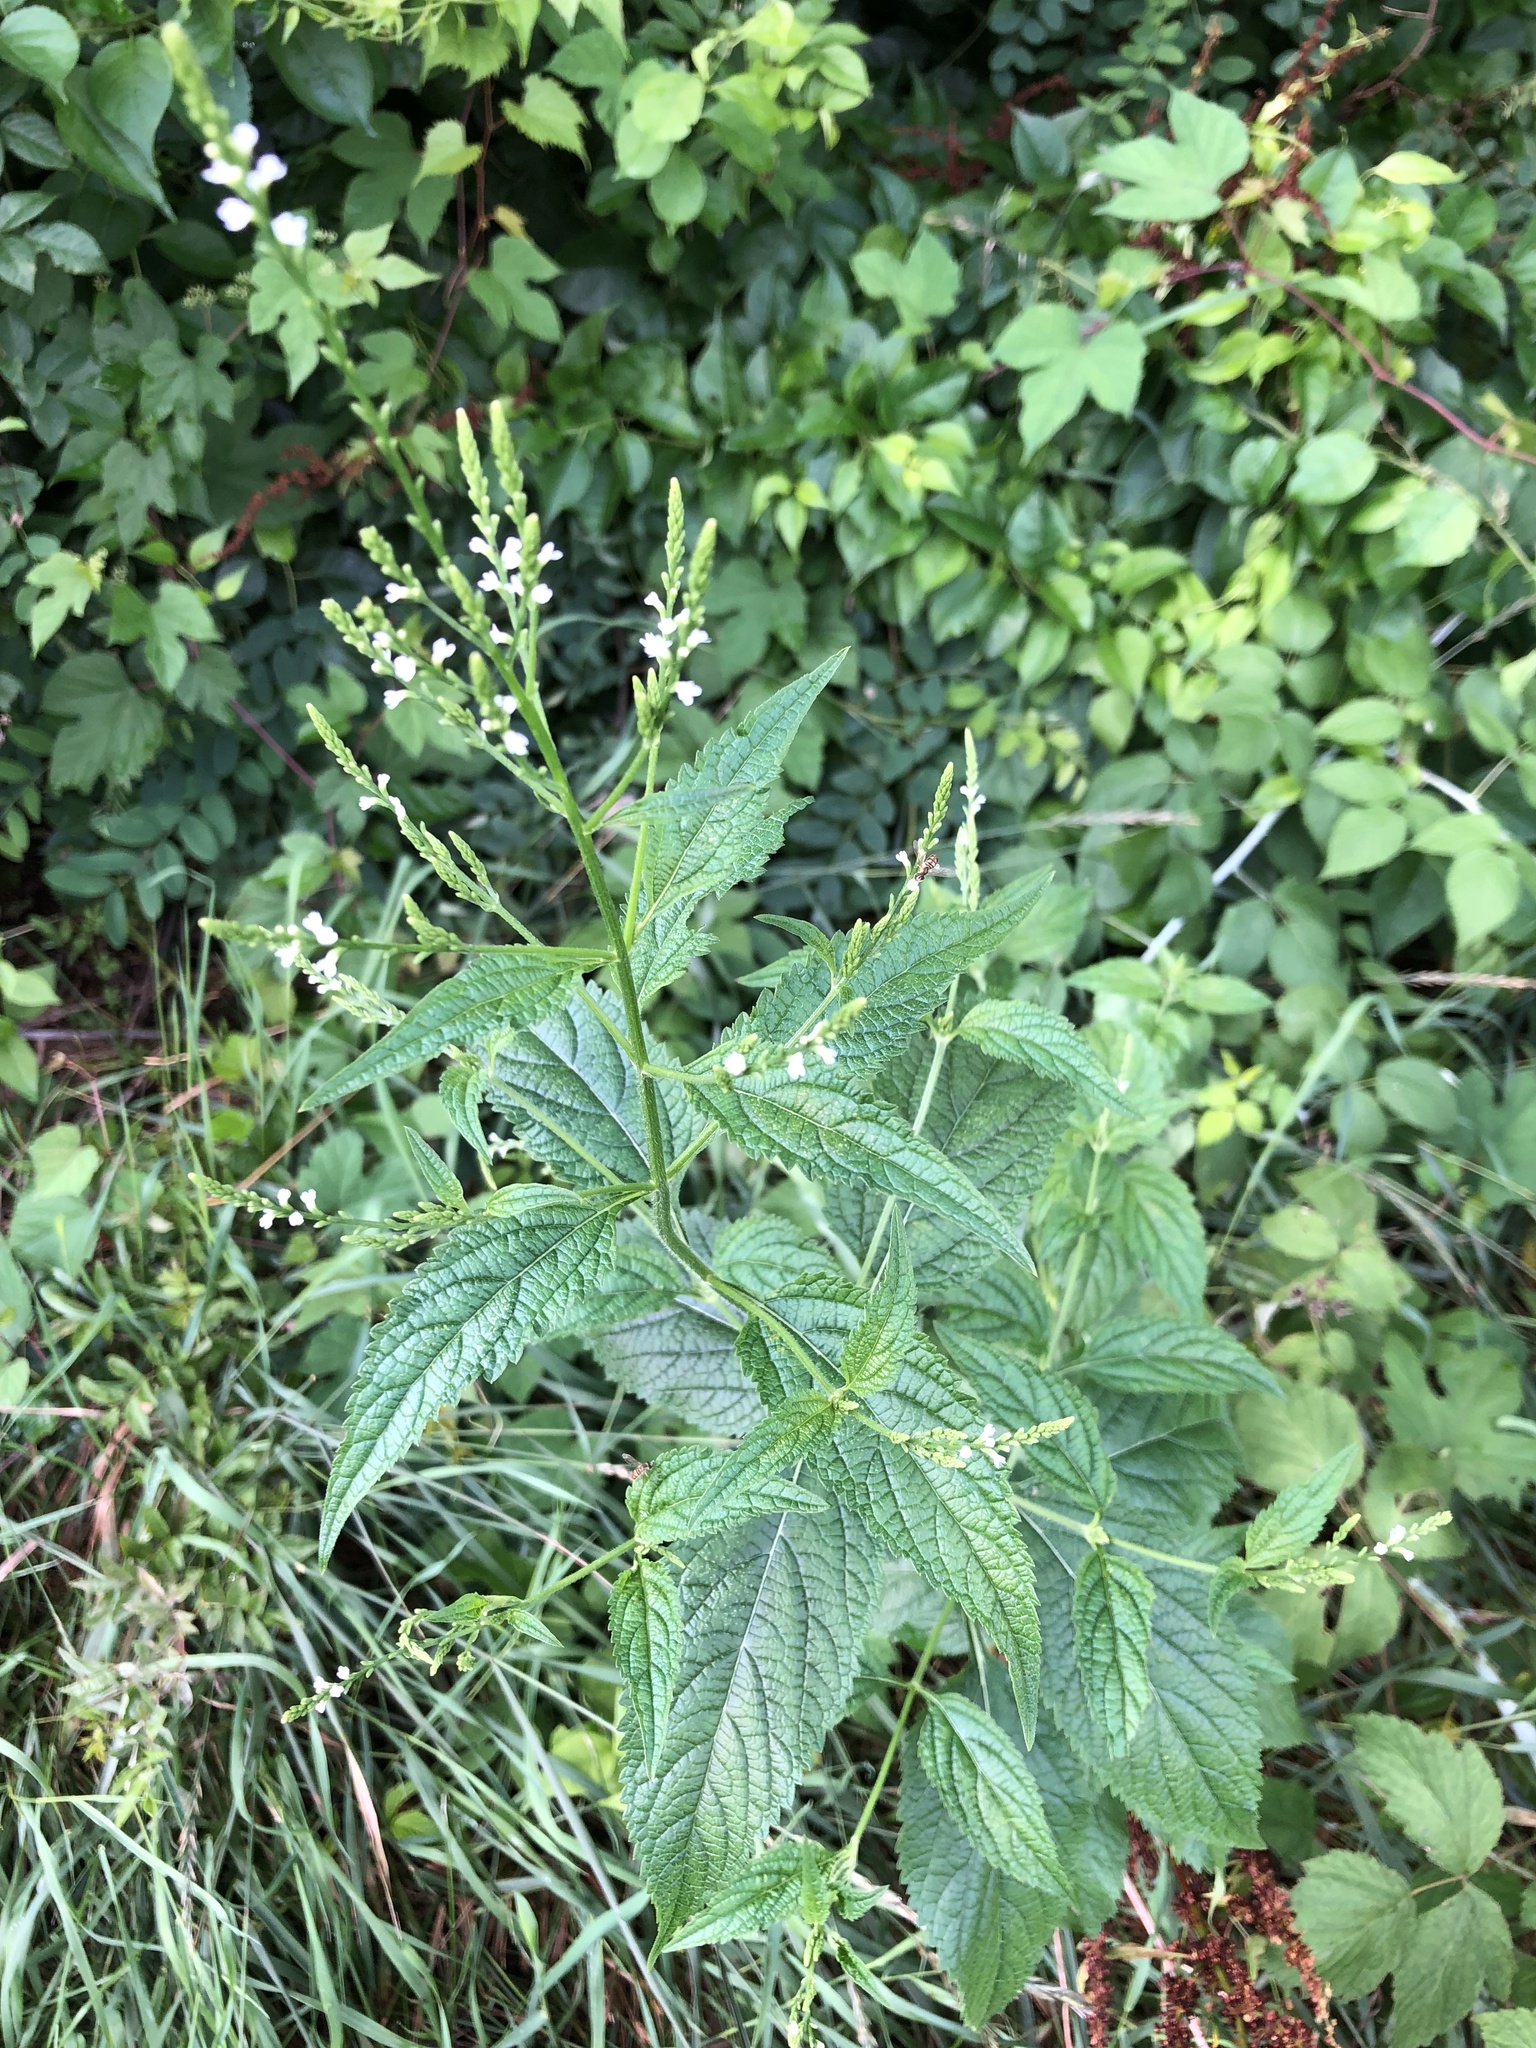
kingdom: Plantae
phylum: Tracheophyta
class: Magnoliopsida
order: Lamiales
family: Verbenaceae
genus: Verbena
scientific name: Verbena urticifolia
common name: Nettle-leaved vervain
